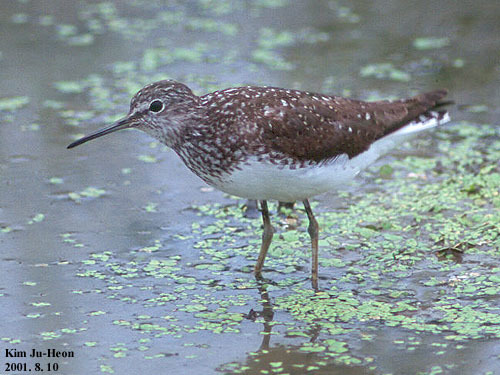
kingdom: Animalia
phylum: Chordata
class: Aves
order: Charadriiformes
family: Scolopacidae
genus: Tringa
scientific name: Tringa ochropus
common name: Green sandpiper
